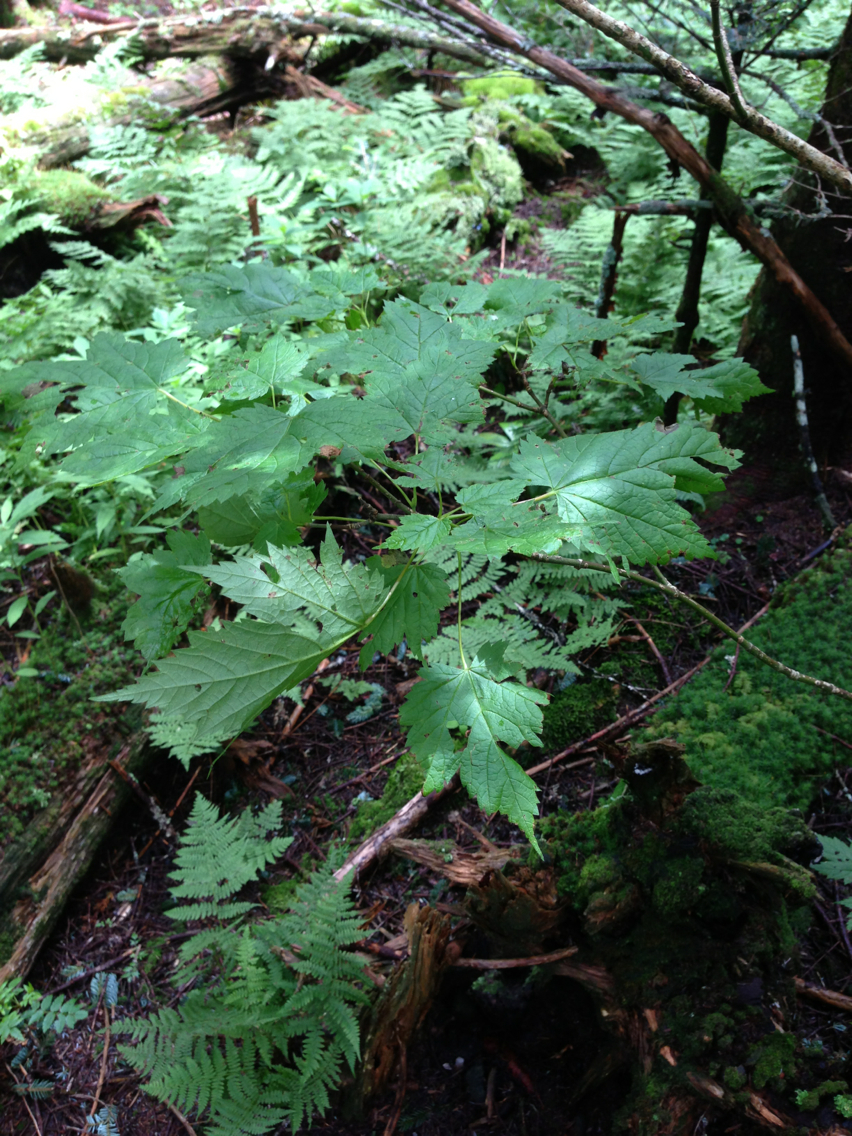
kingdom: Plantae
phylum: Tracheophyta
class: Magnoliopsida
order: Sapindales
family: Sapindaceae
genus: Acer
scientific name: Acer pensylvanicum
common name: Moosewood
